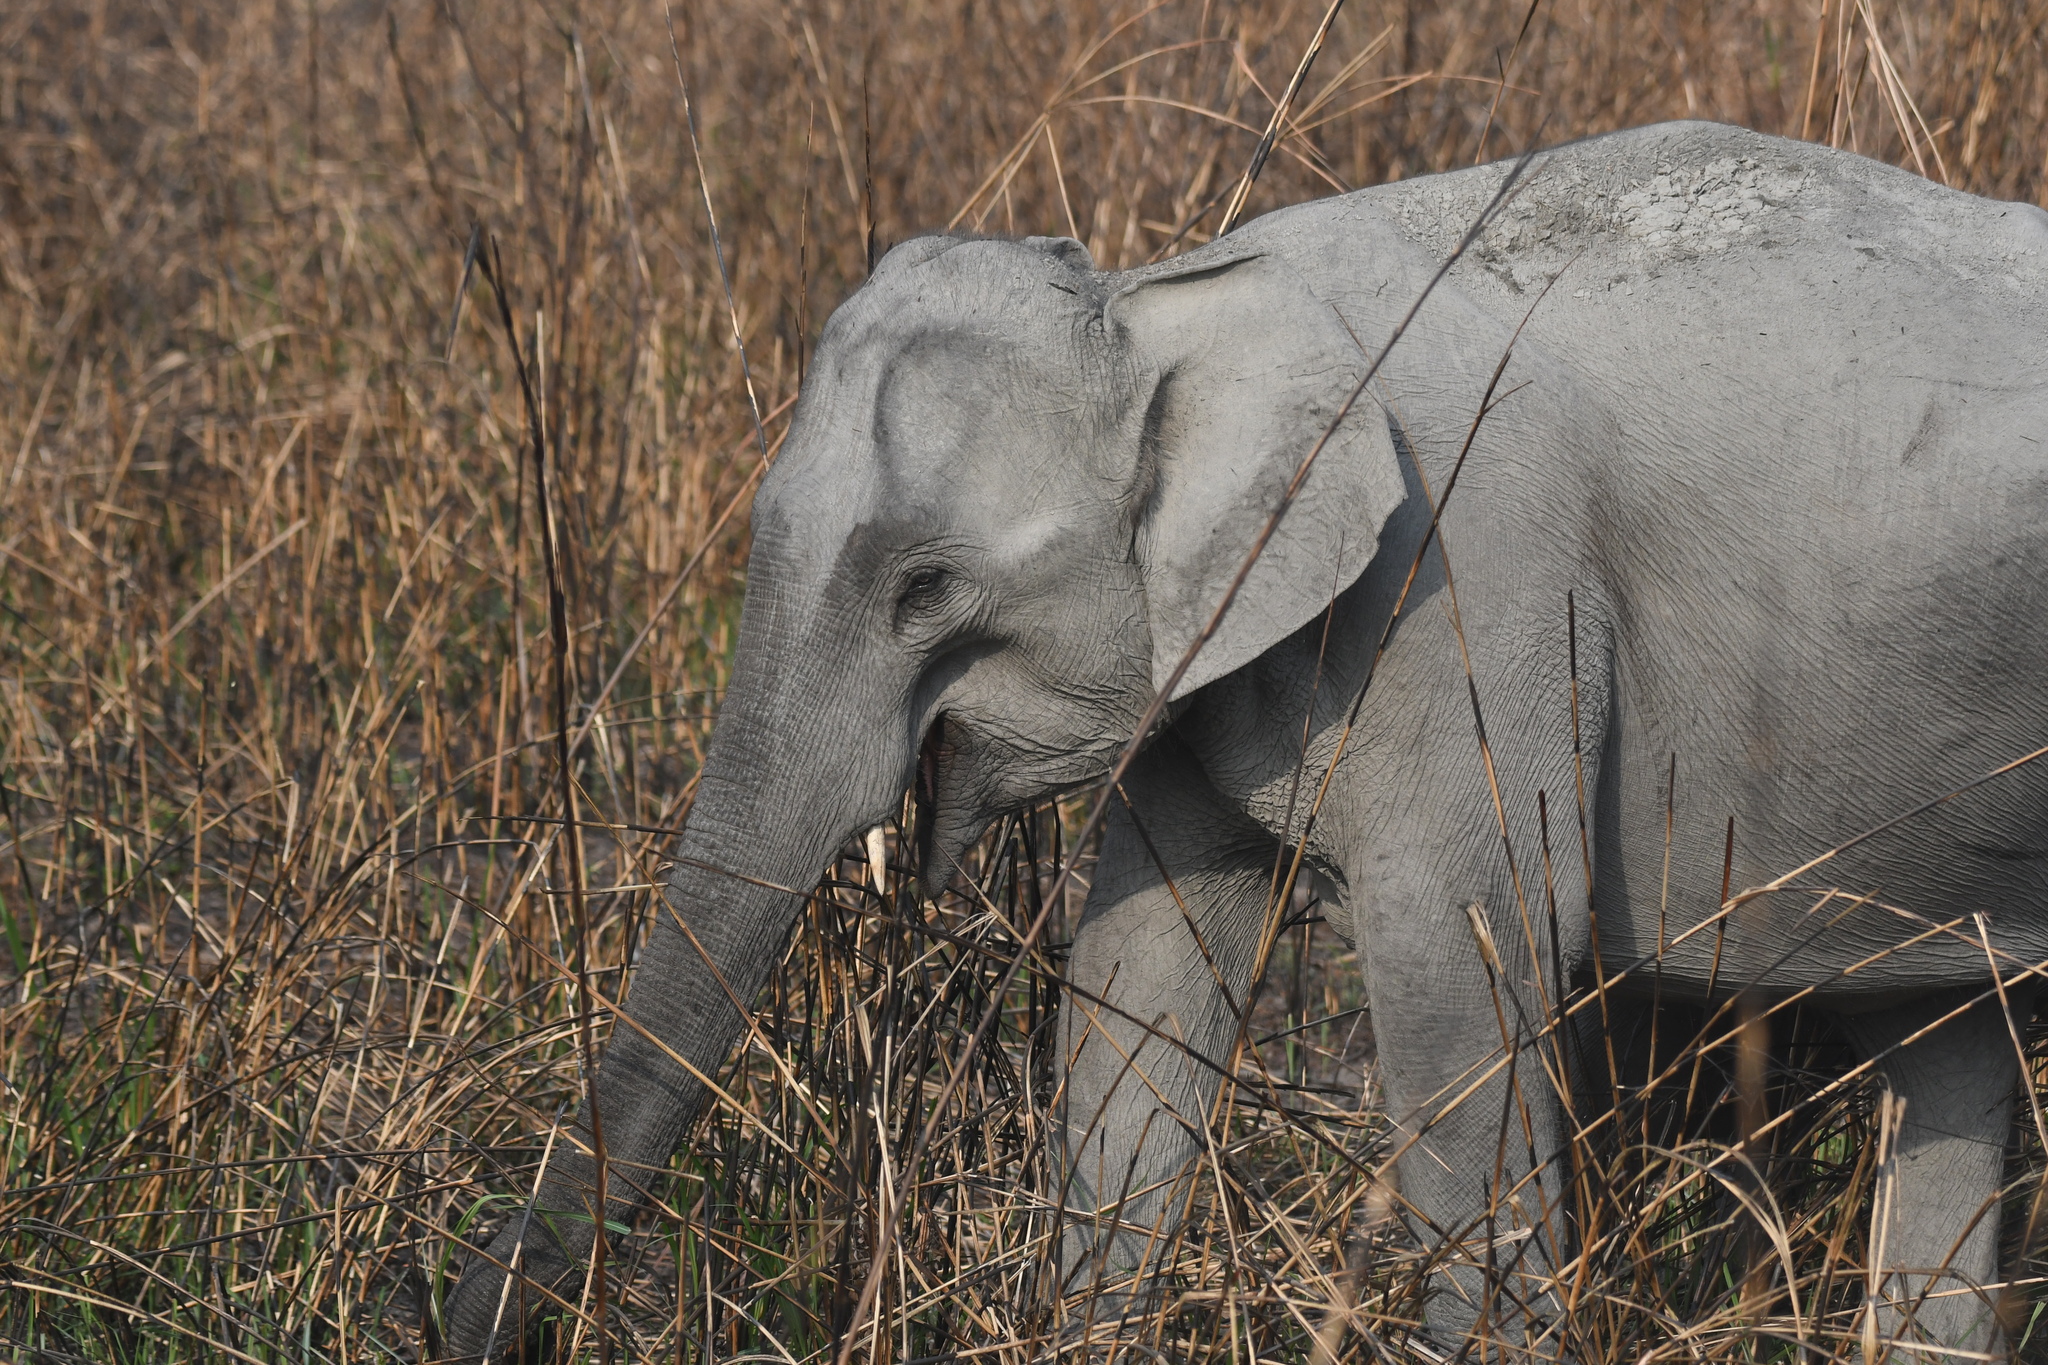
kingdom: Animalia
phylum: Chordata
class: Mammalia
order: Proboscidea
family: Elephantidae
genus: Elephas
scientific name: Elephas maximus
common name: Asian elephant
